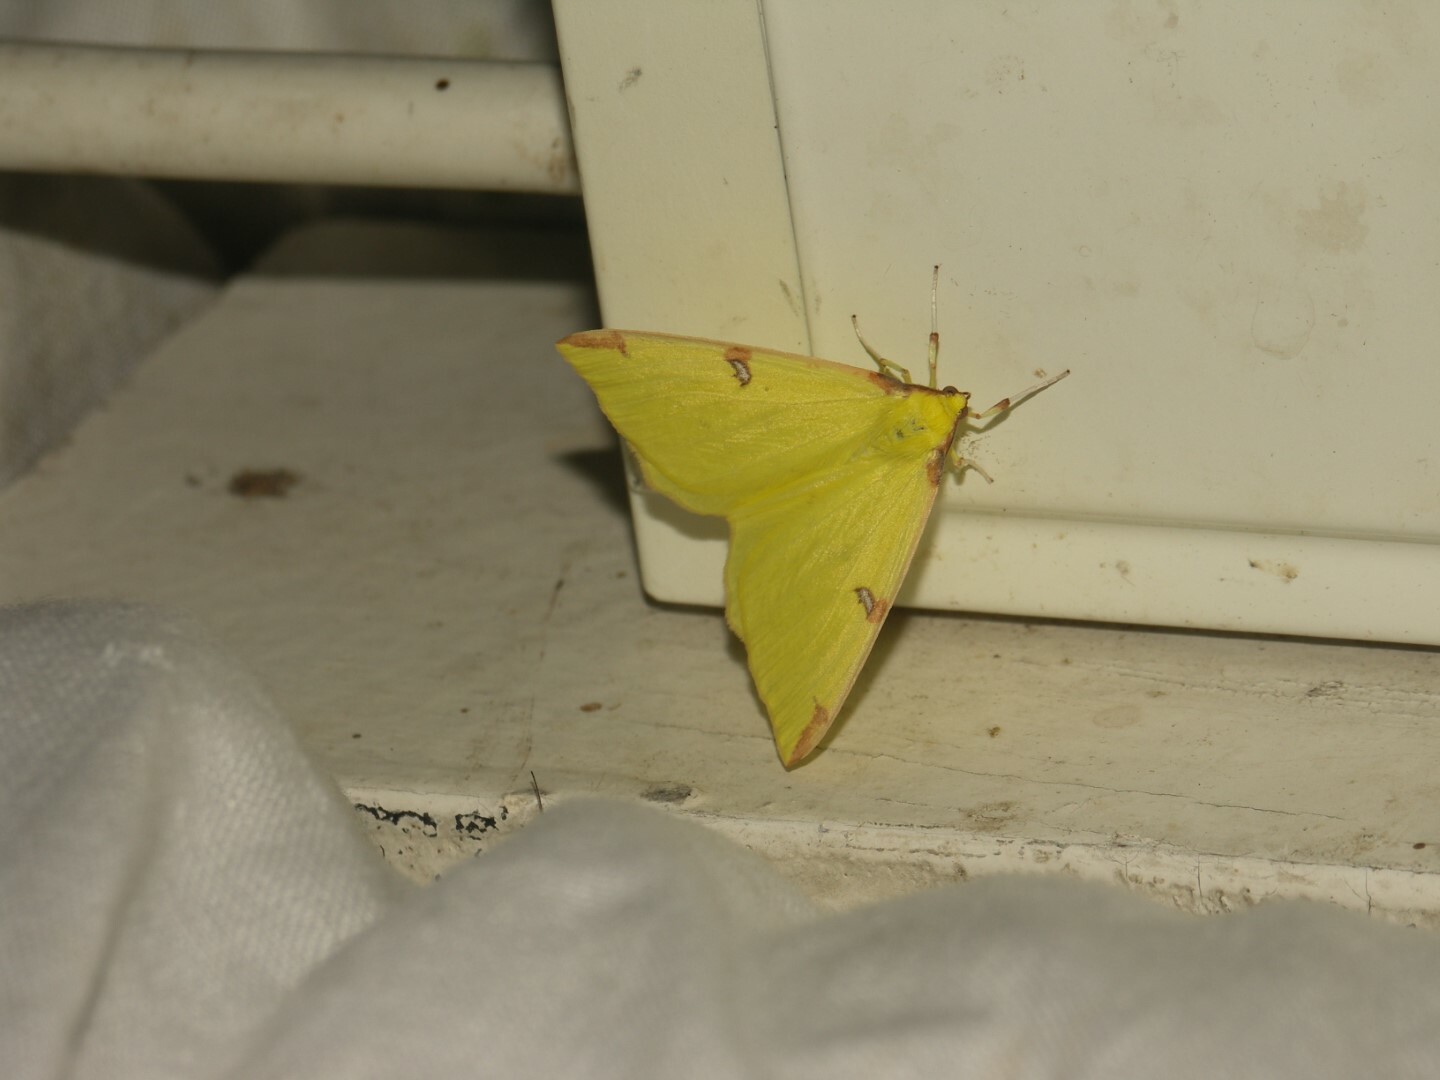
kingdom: Animalia
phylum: Arthropoda
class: Insecta
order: Lepidoptera
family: Geometridae
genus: Opisthograptis
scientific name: Opisthograptis luteolata
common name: Brimstone moth
